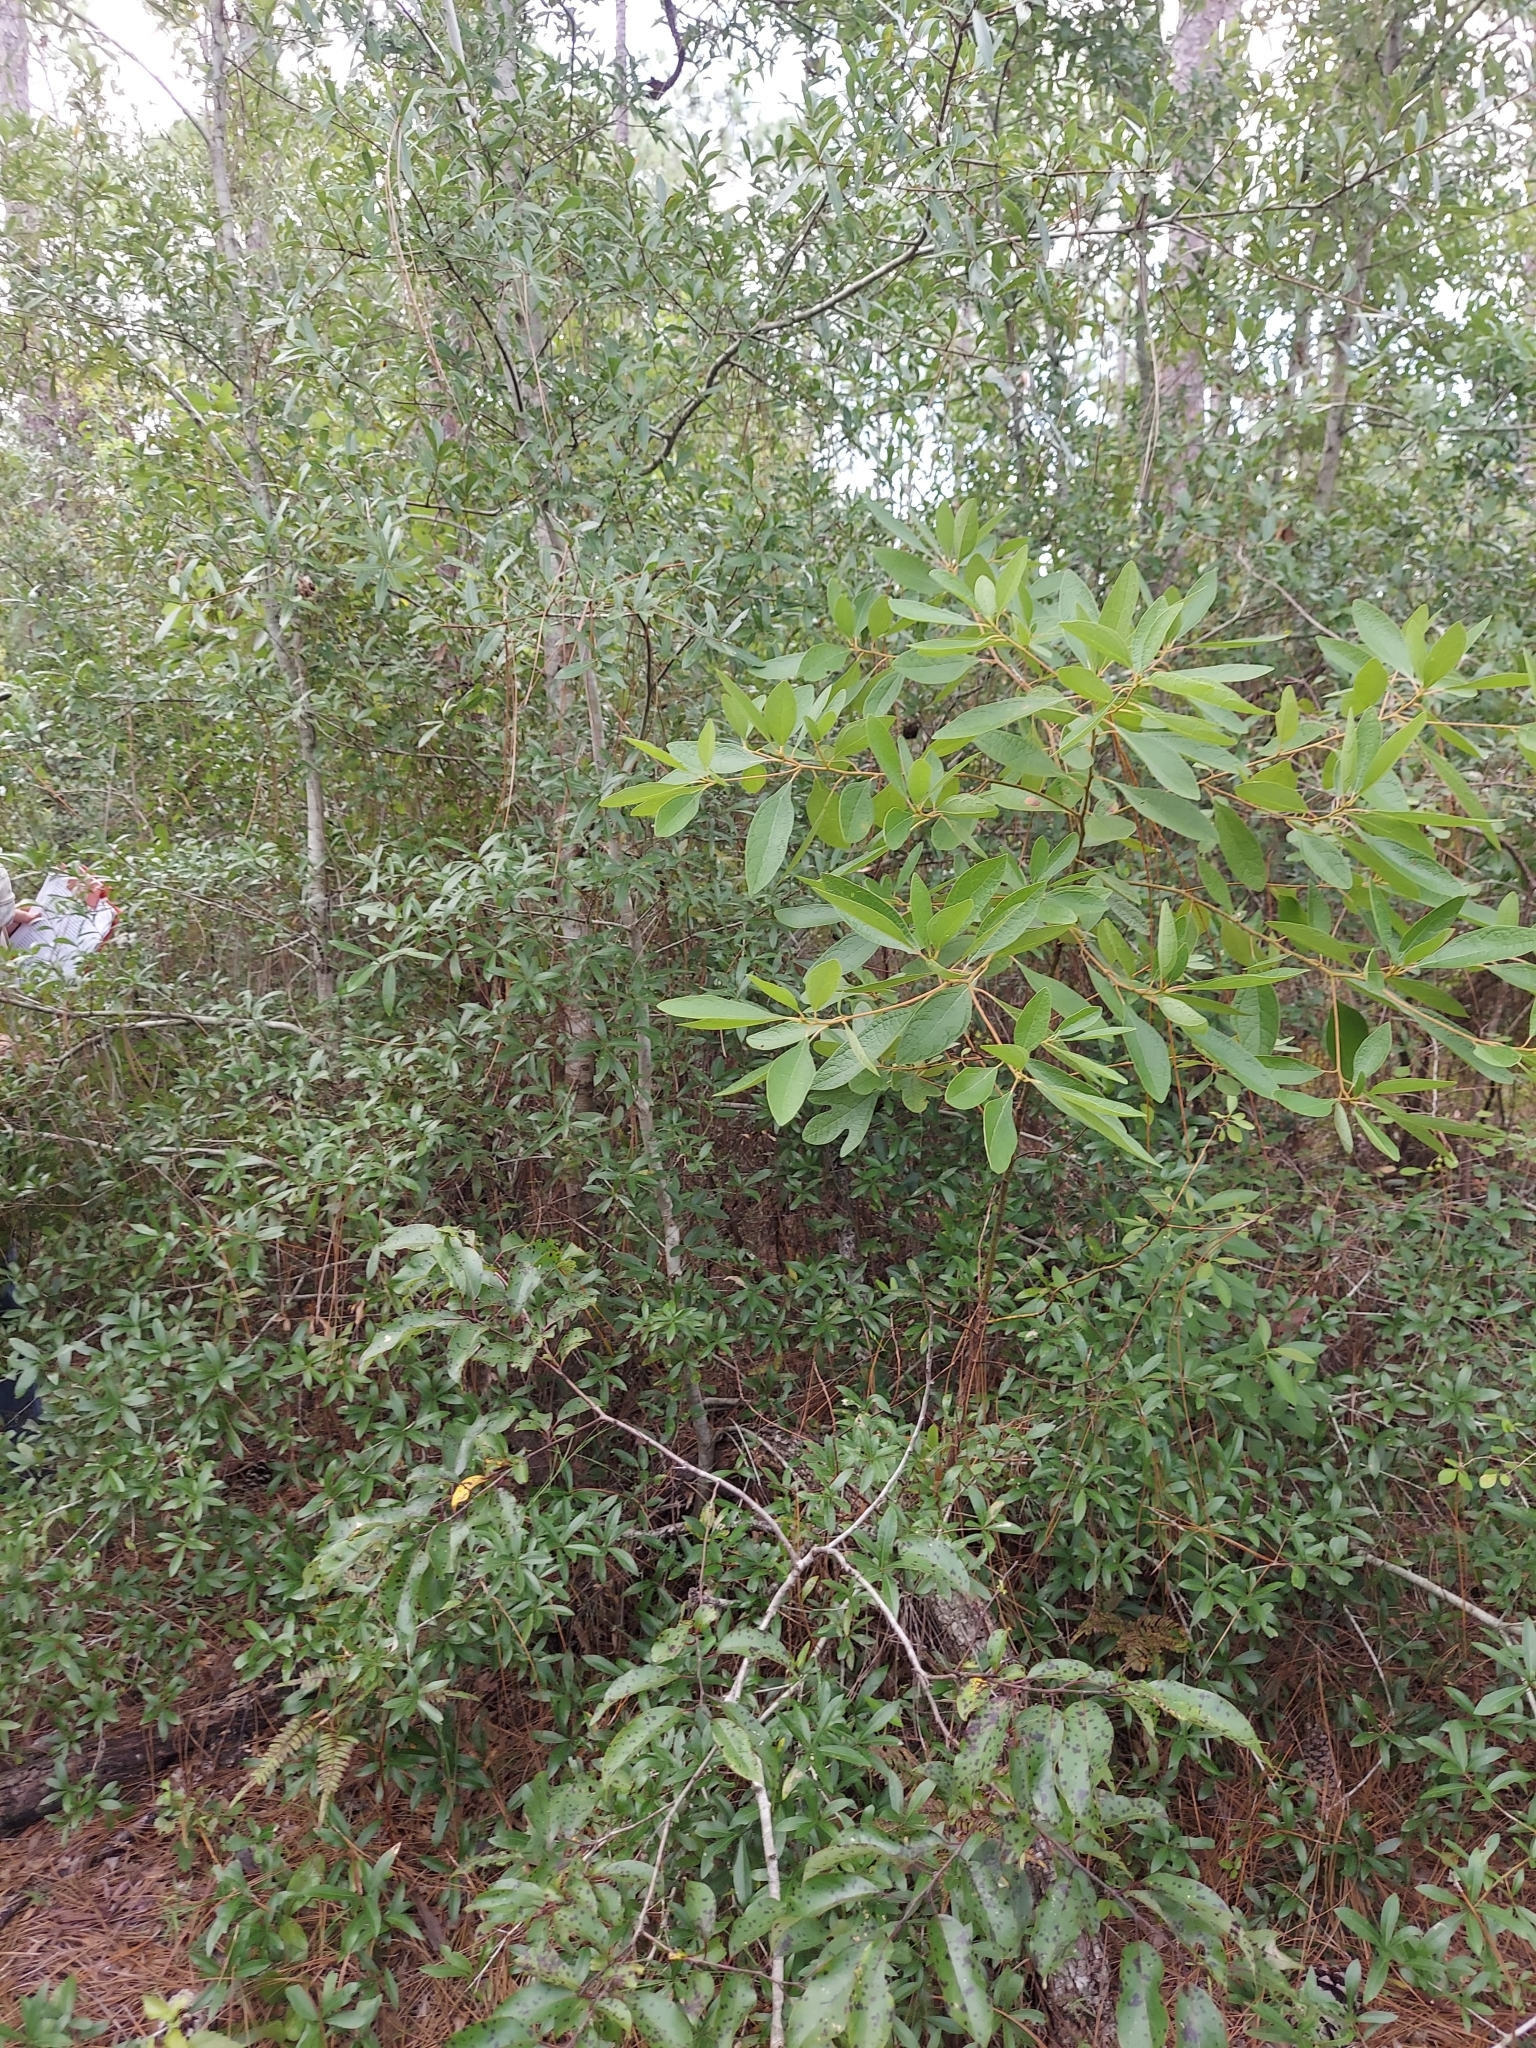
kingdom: Plantae
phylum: Tracheophyta
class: Magnoliopsida
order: Laurales
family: Lauraceae
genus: Sassafras
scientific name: Sassafras albidum
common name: Sassafras
